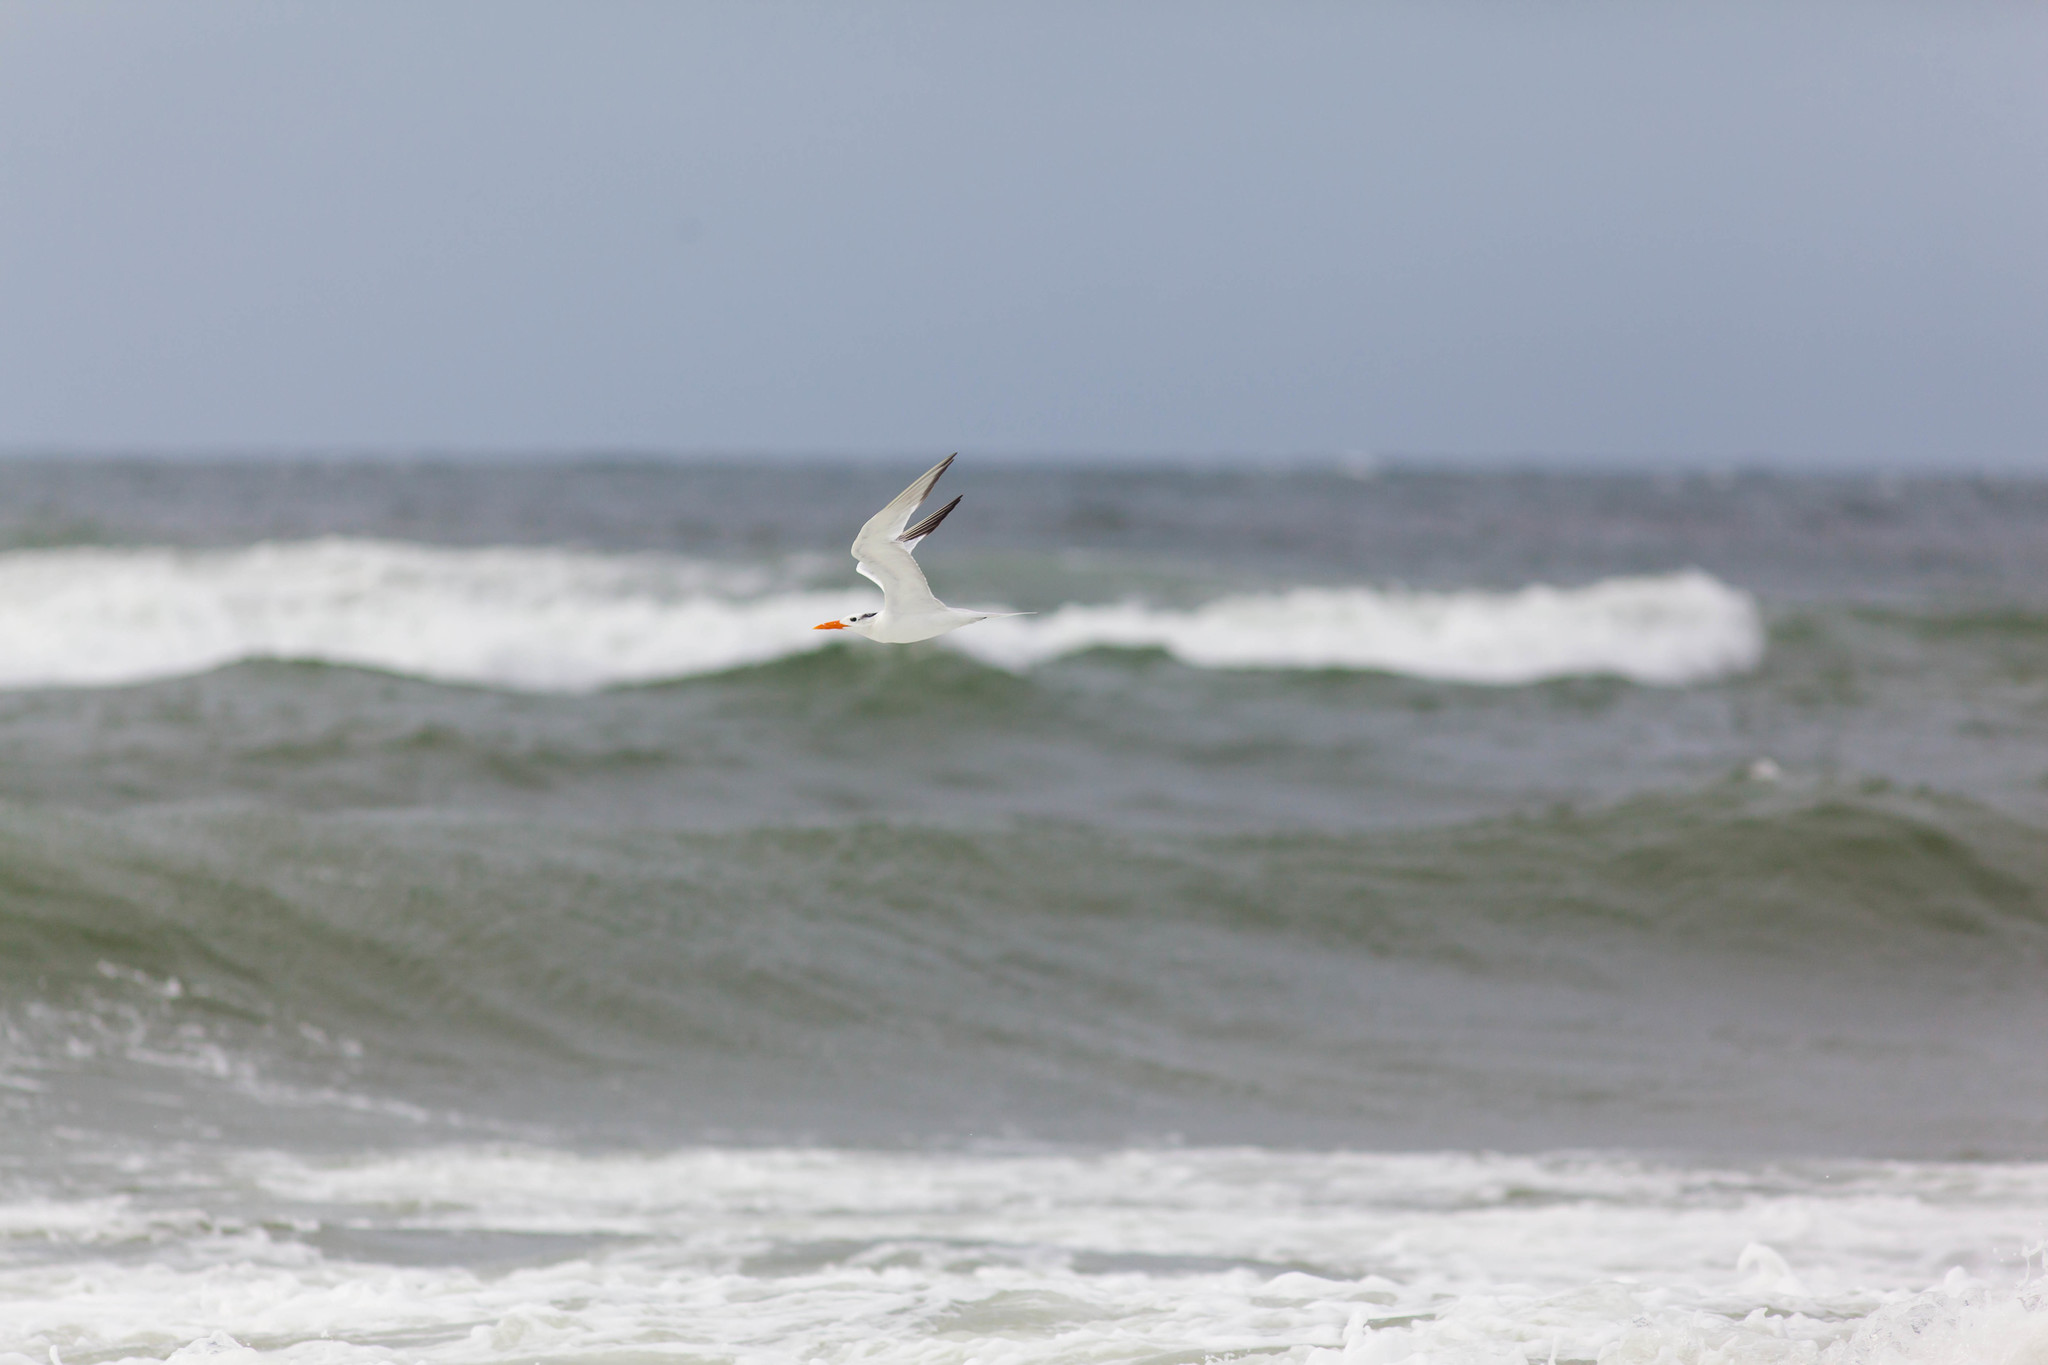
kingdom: Animalia
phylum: Chordata
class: Aves
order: Charadriiformes
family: Laridae
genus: Thalasseus
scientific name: Thalasseus maximus
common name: Royal tern
